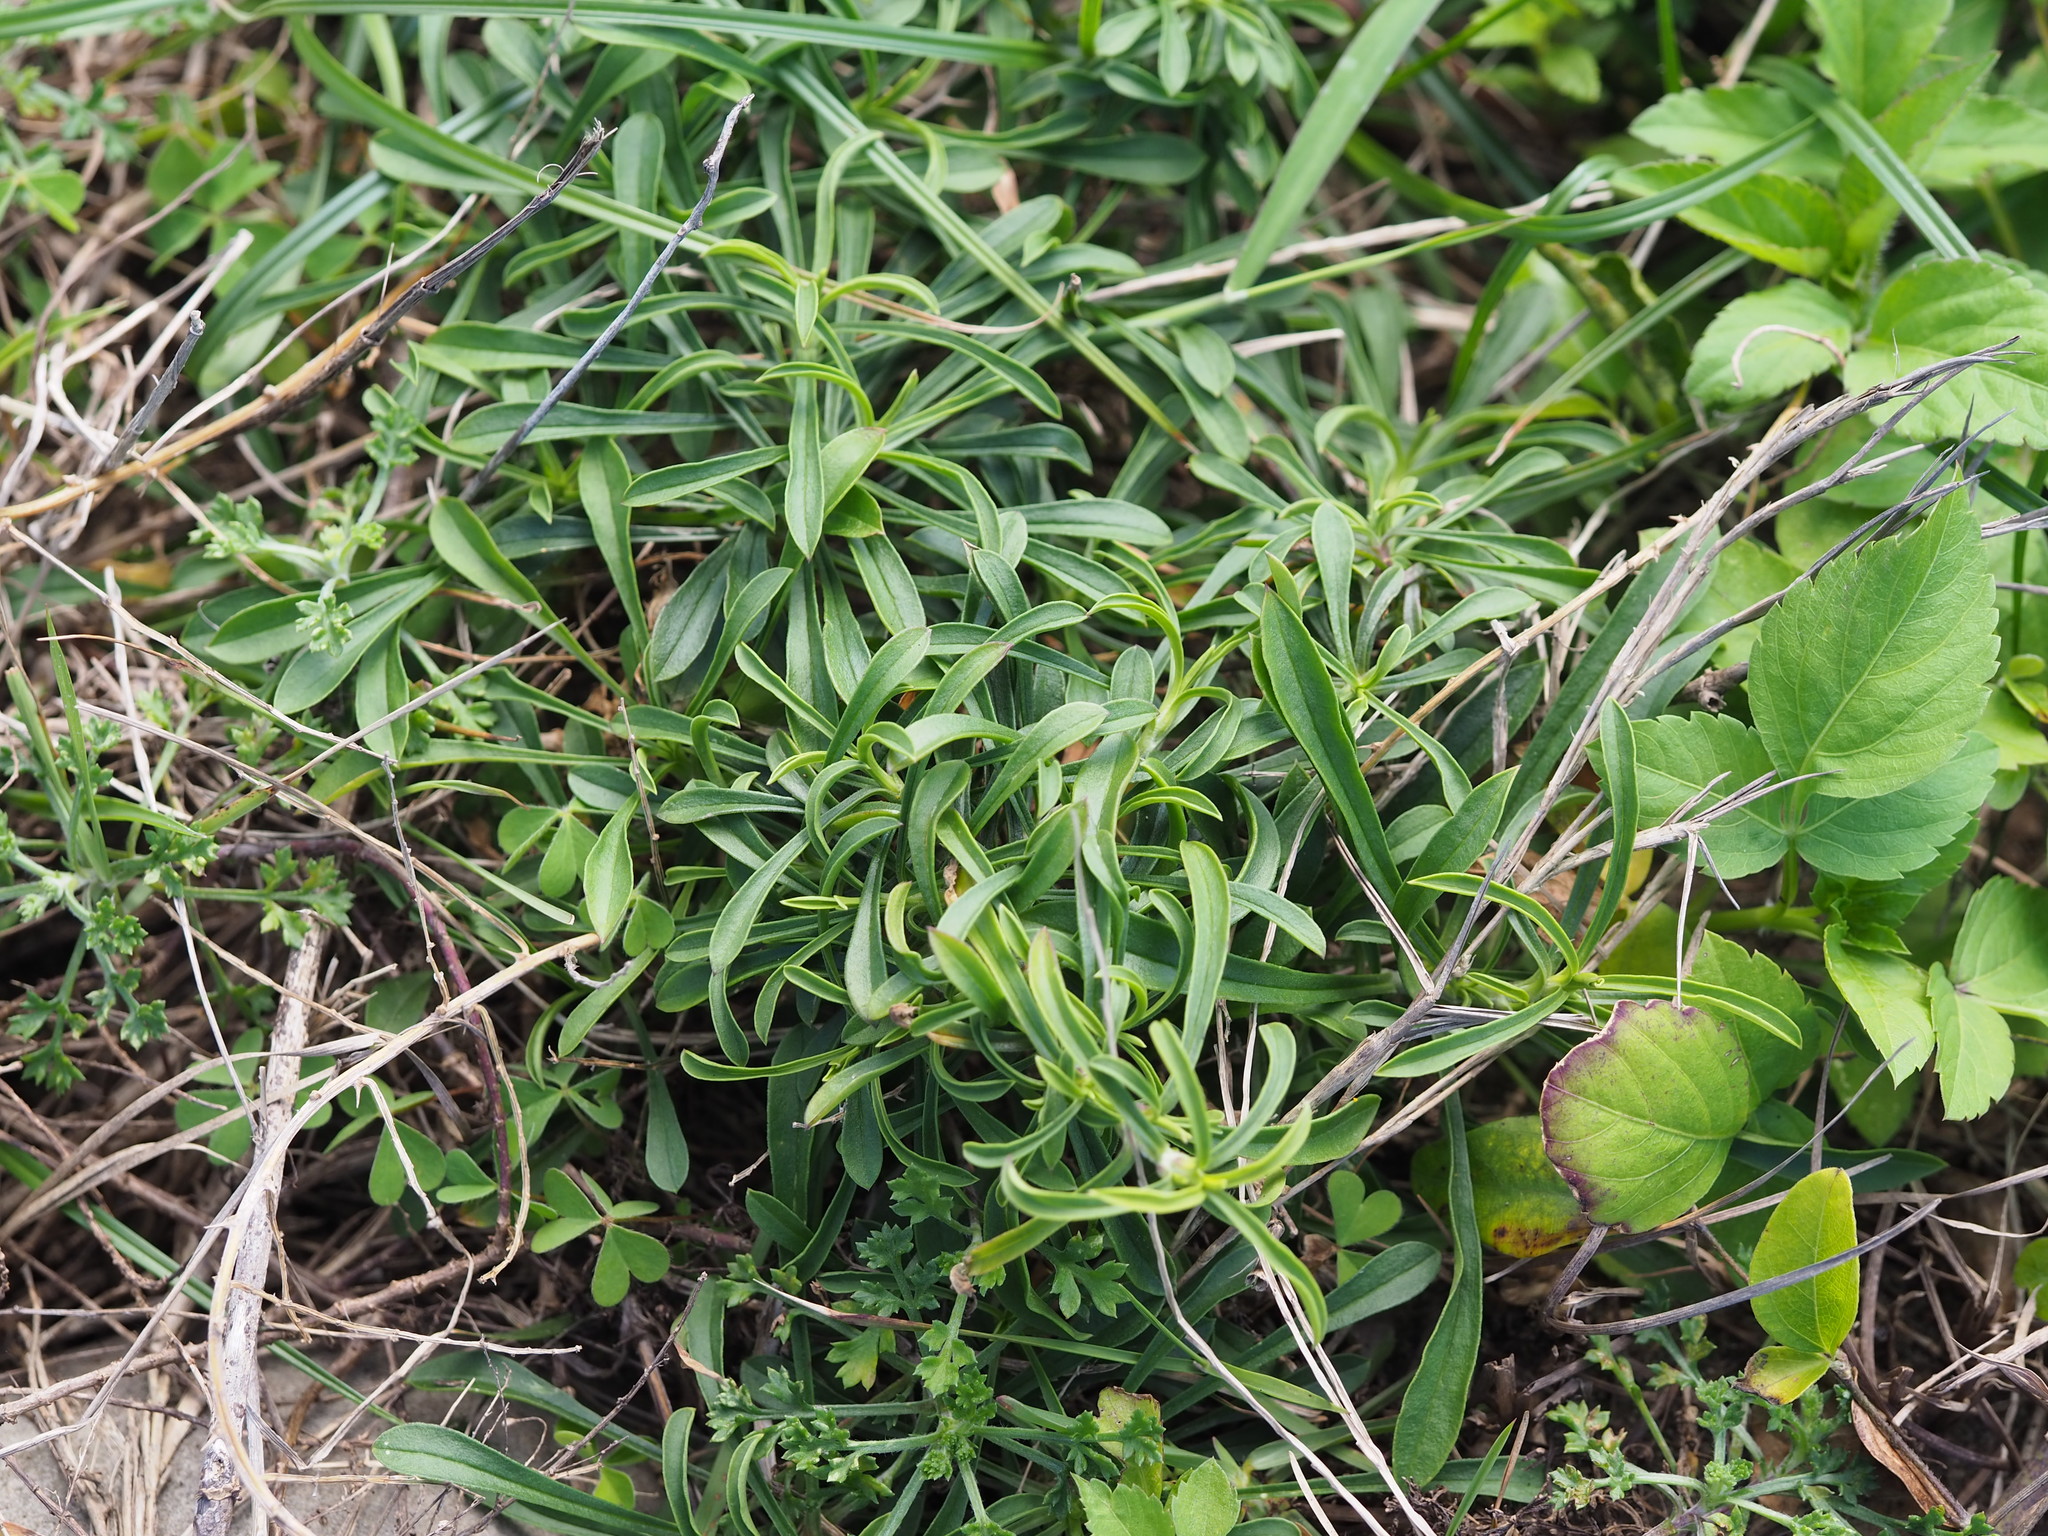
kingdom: Plantae
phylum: Tracheophyta
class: Magnoliopsida
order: Caryophyllales
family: Caryophyllaceae
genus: Silene
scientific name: Silene fissipetala
